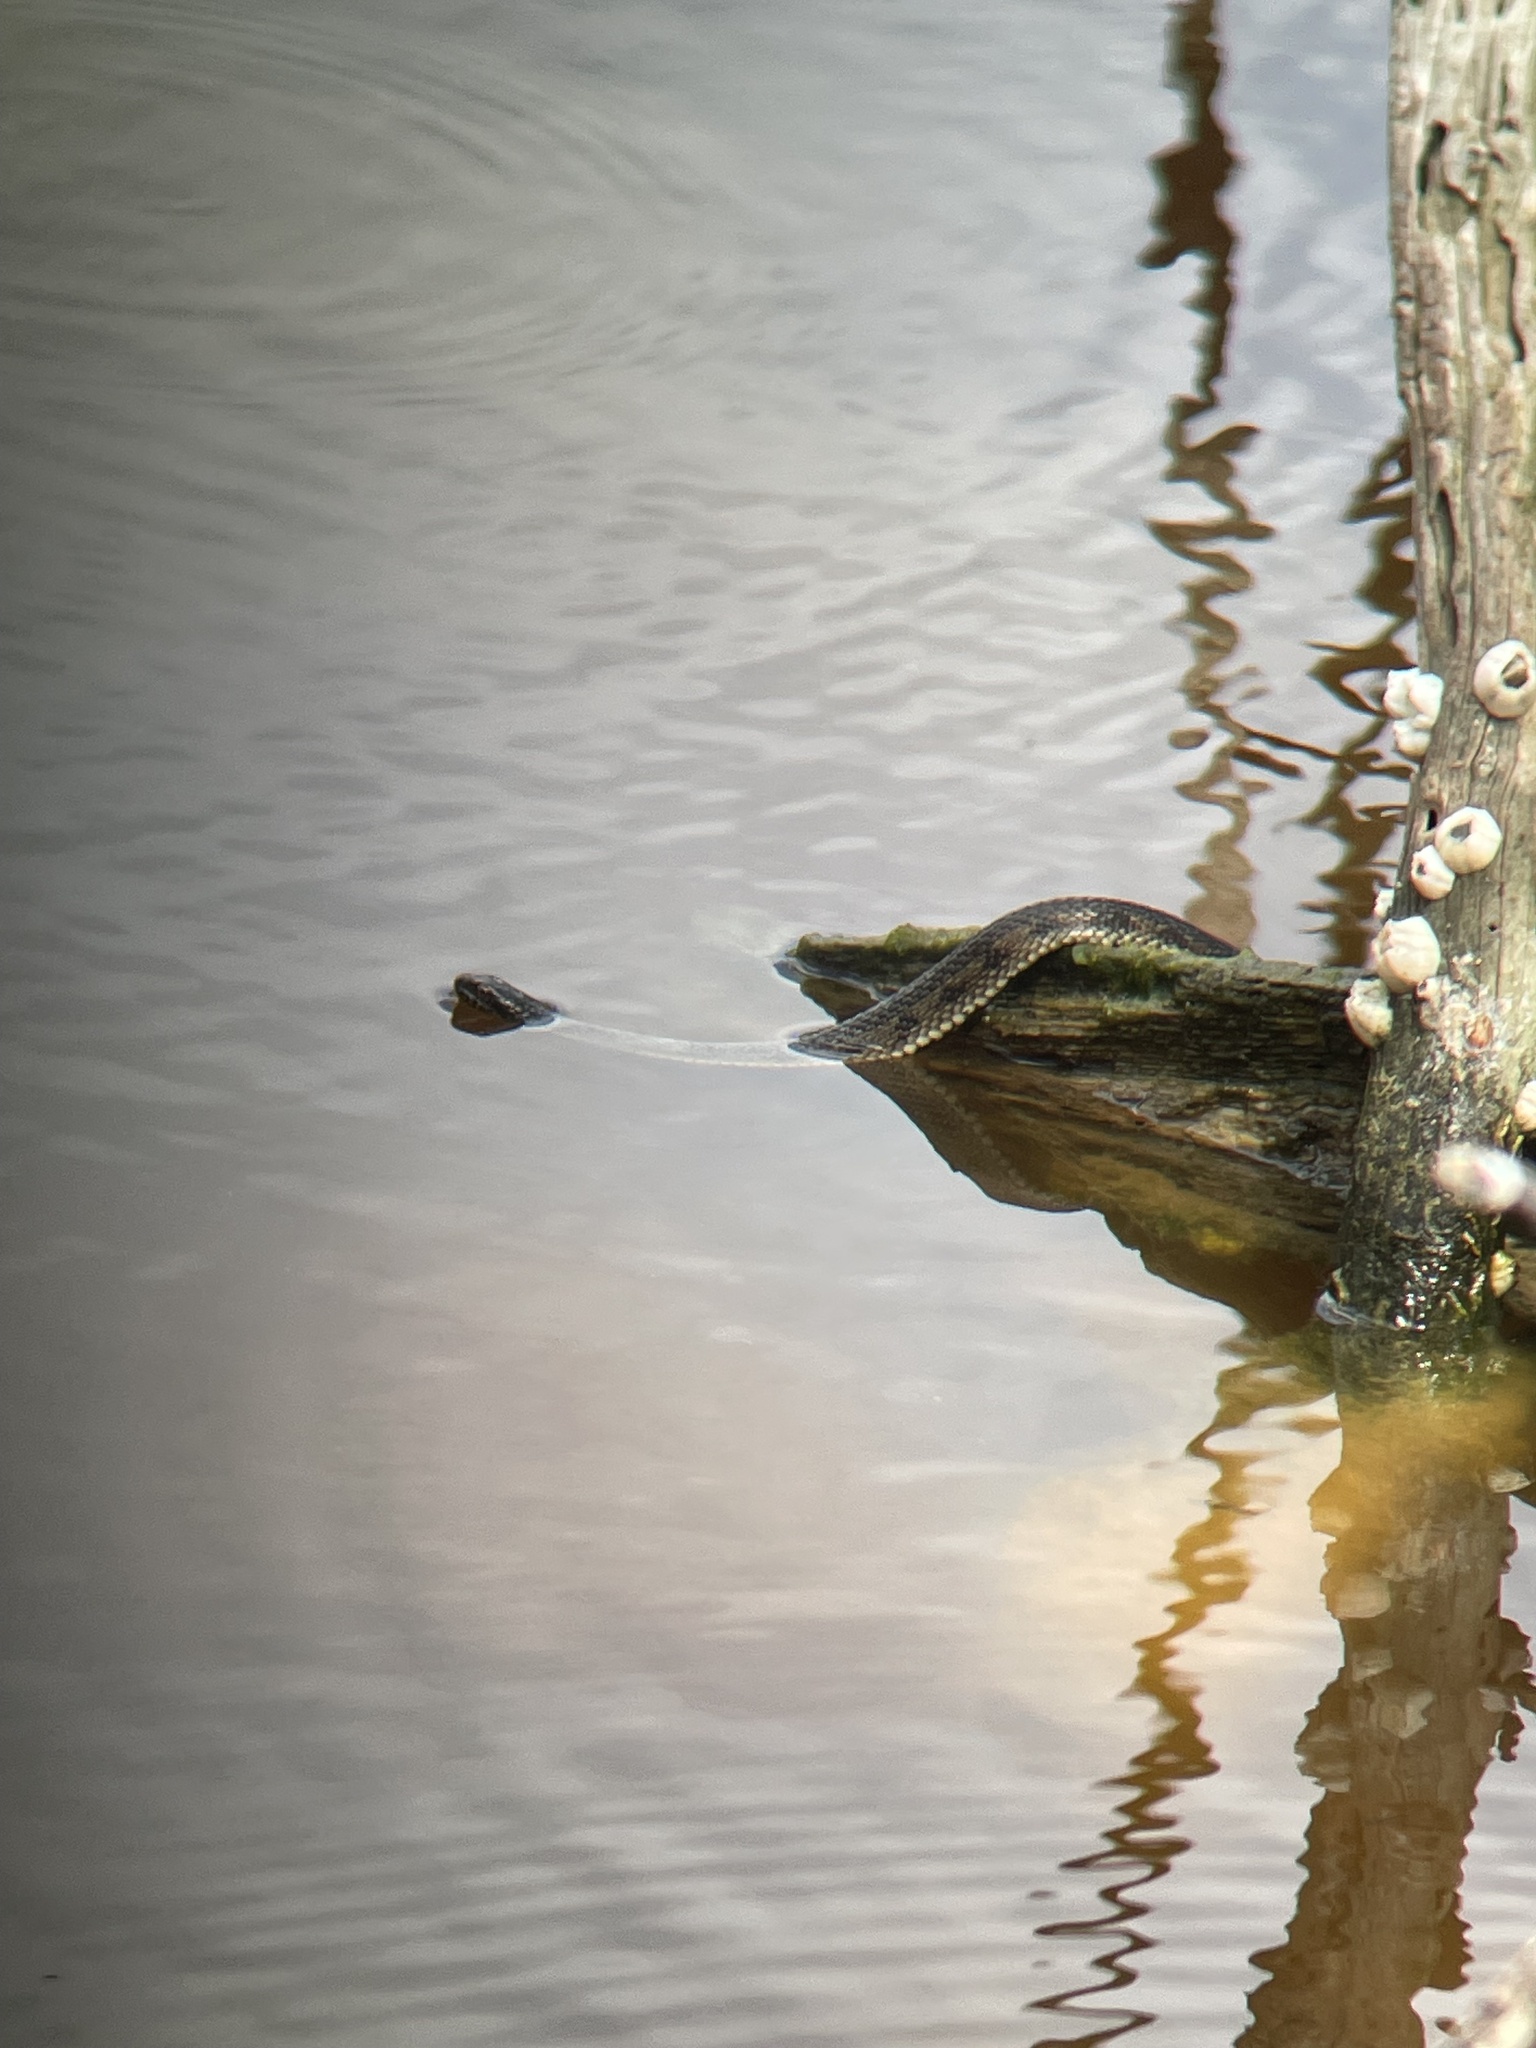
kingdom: Animalia
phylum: Chordata
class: Squamata
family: Colubridae
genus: Nerodia
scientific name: Nerodia clarkii
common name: Atlantic saltmarsh snake
